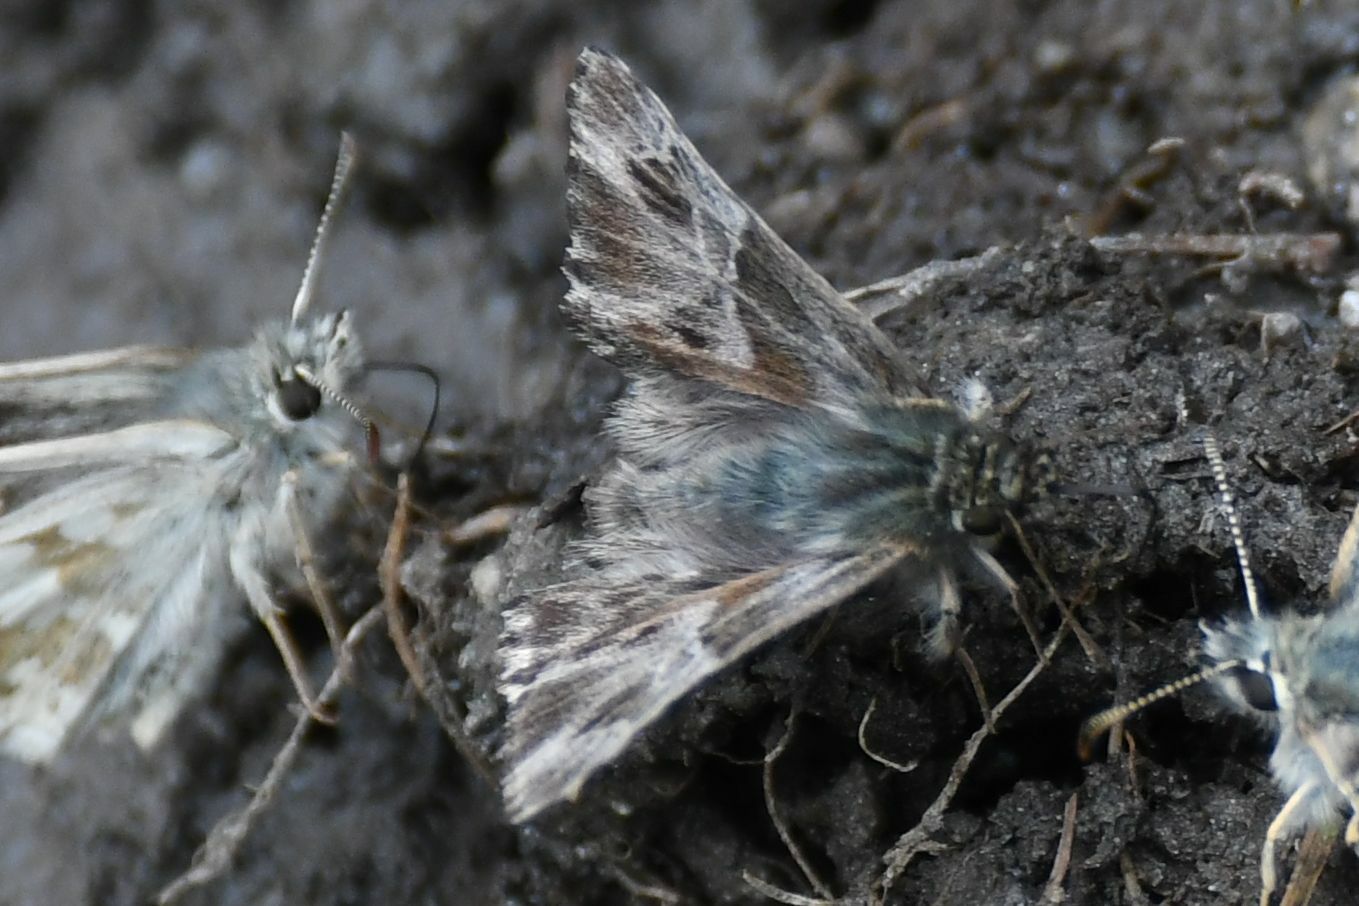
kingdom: Animalia
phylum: Arthropoda
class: Insecta
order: Lepidoptera
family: Hesperiidae
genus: Carcharodus
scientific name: Carcharodus floccifera
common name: Tufted marbled skipper
